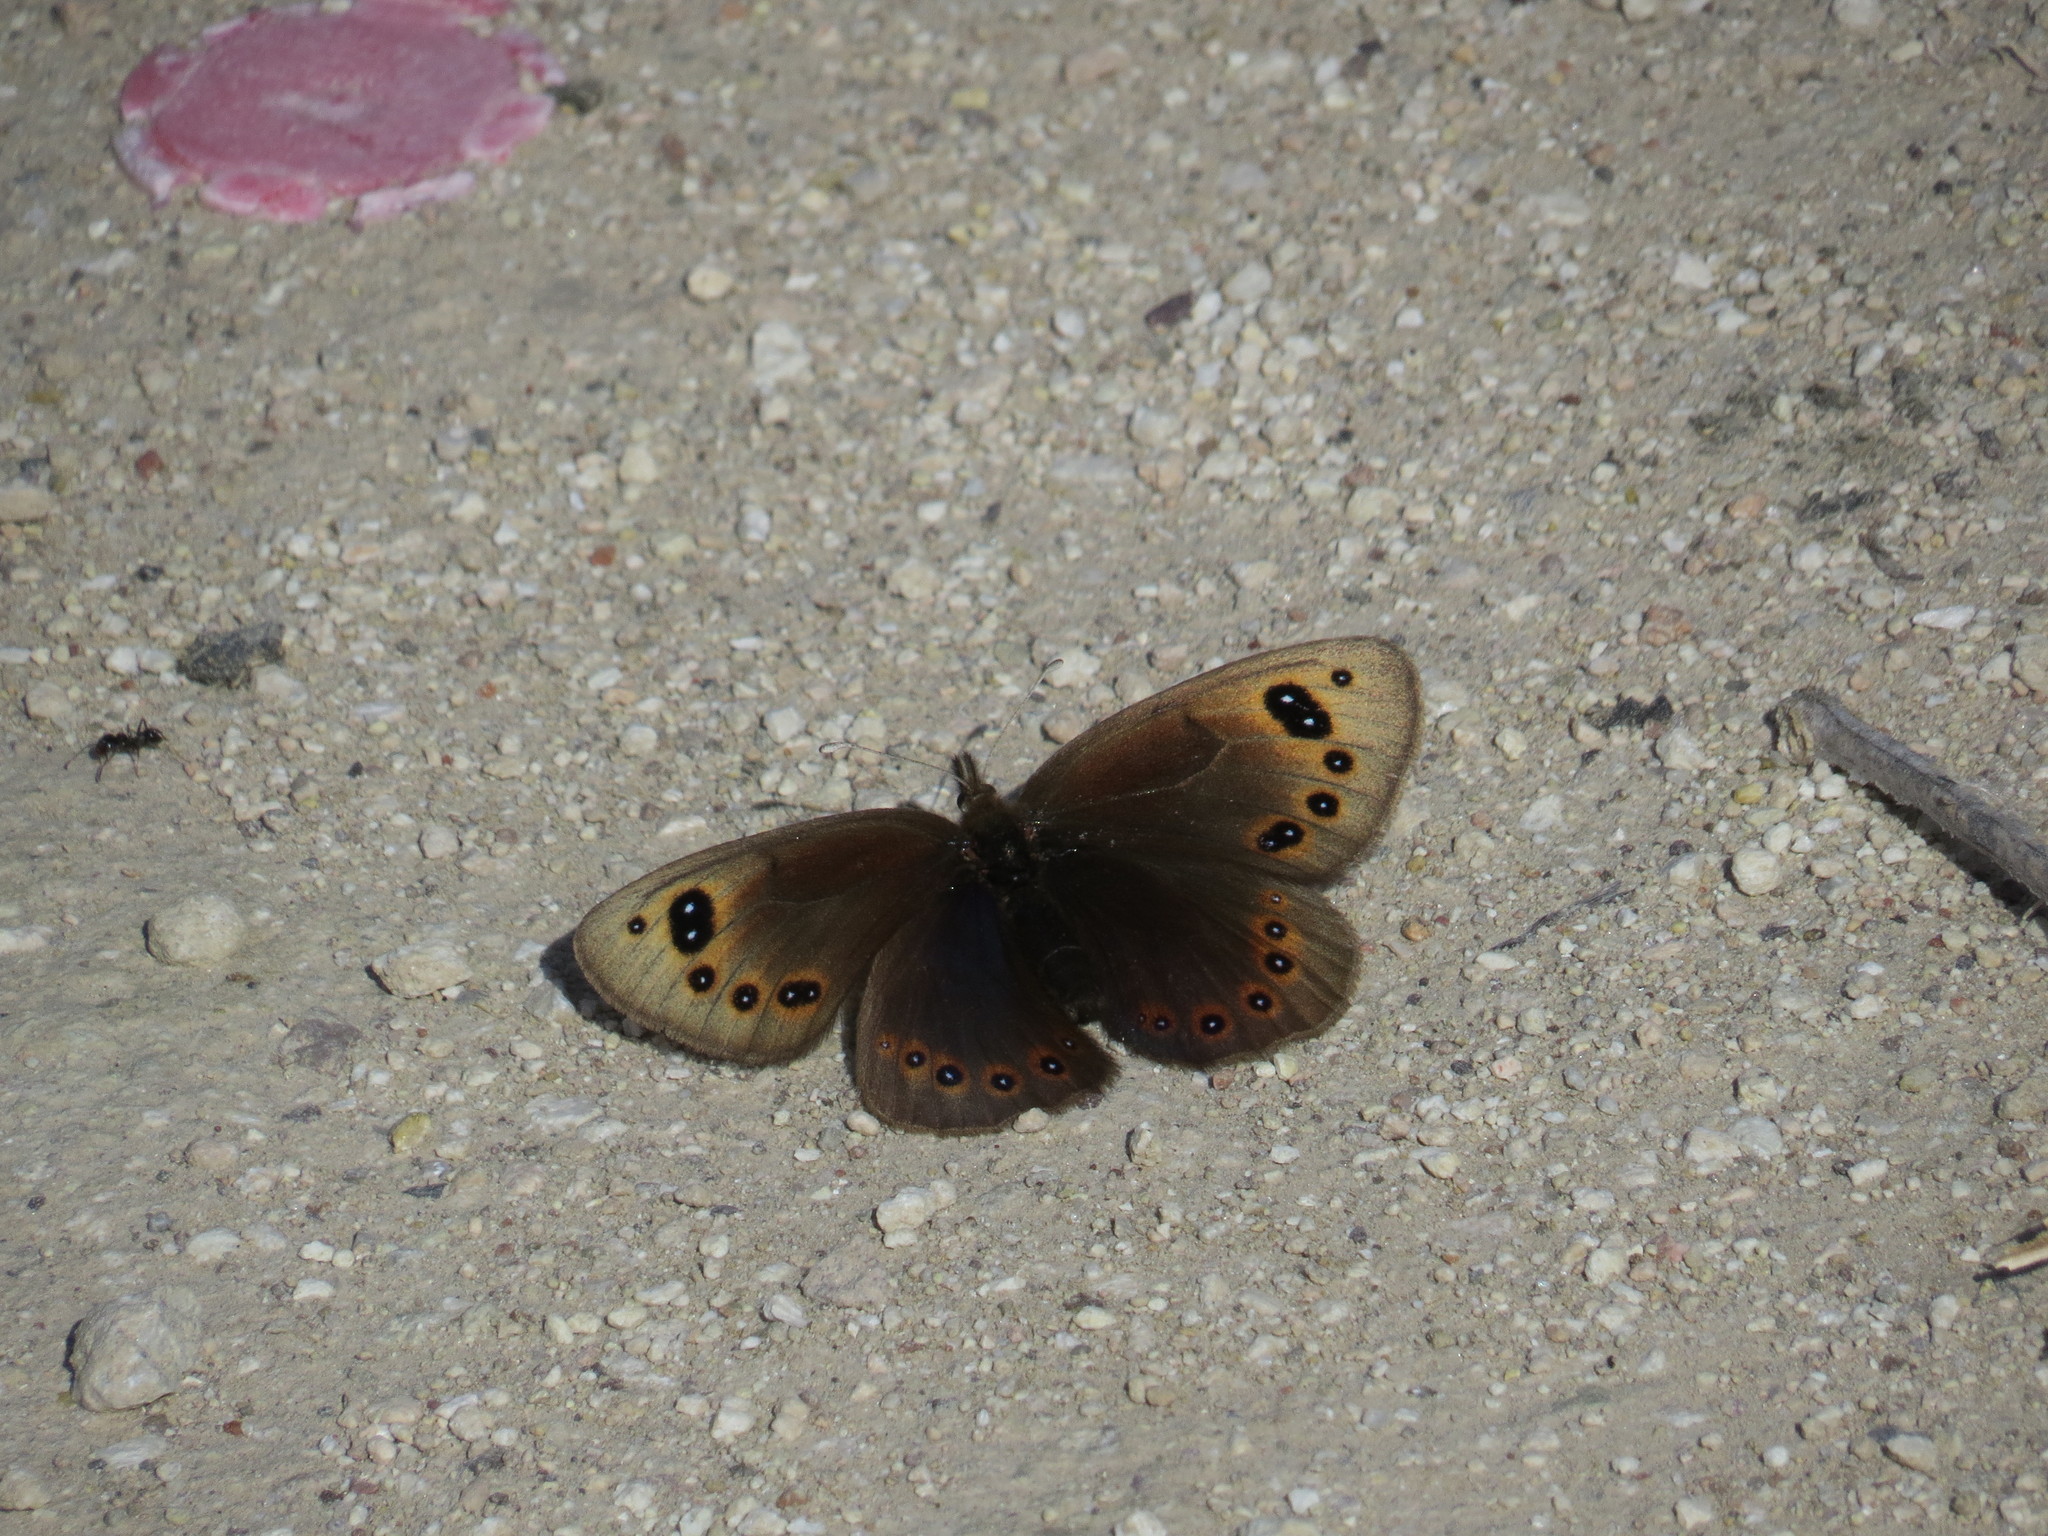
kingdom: Animalia
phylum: Arthropoda
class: Insecta
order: Lepidoptera
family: Nymphalidae
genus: Proterebia
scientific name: Proterebia afra
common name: Dalmatian ringlet
